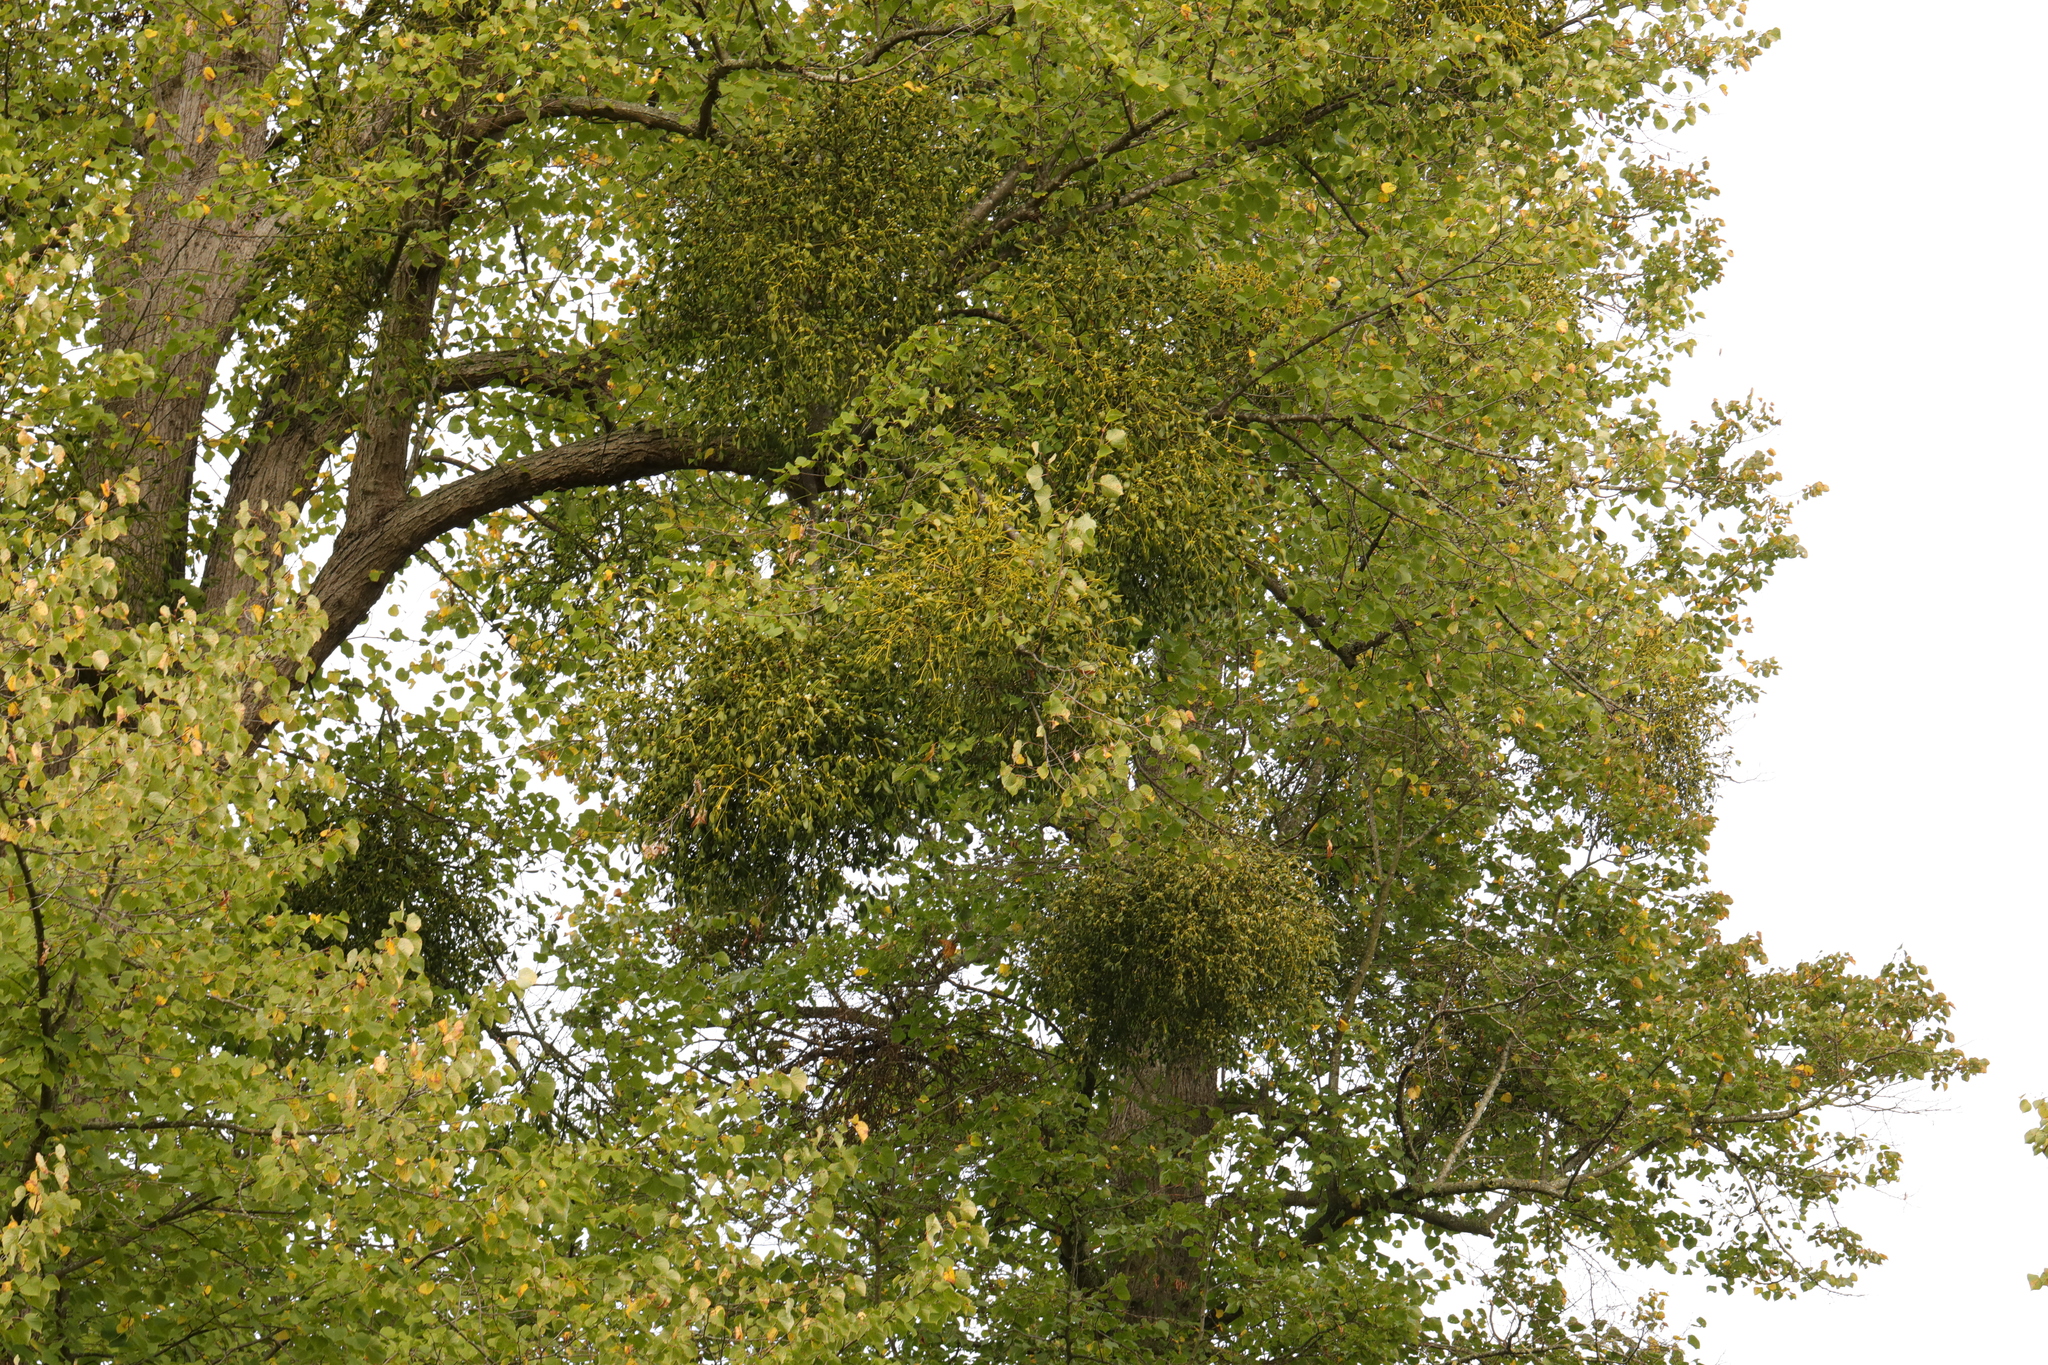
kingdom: Plantae
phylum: Tracheophyta
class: Magnoliopsida
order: Santalales
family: Viscaceae
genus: Viscum
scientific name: Viscum album
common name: Mistletoe
